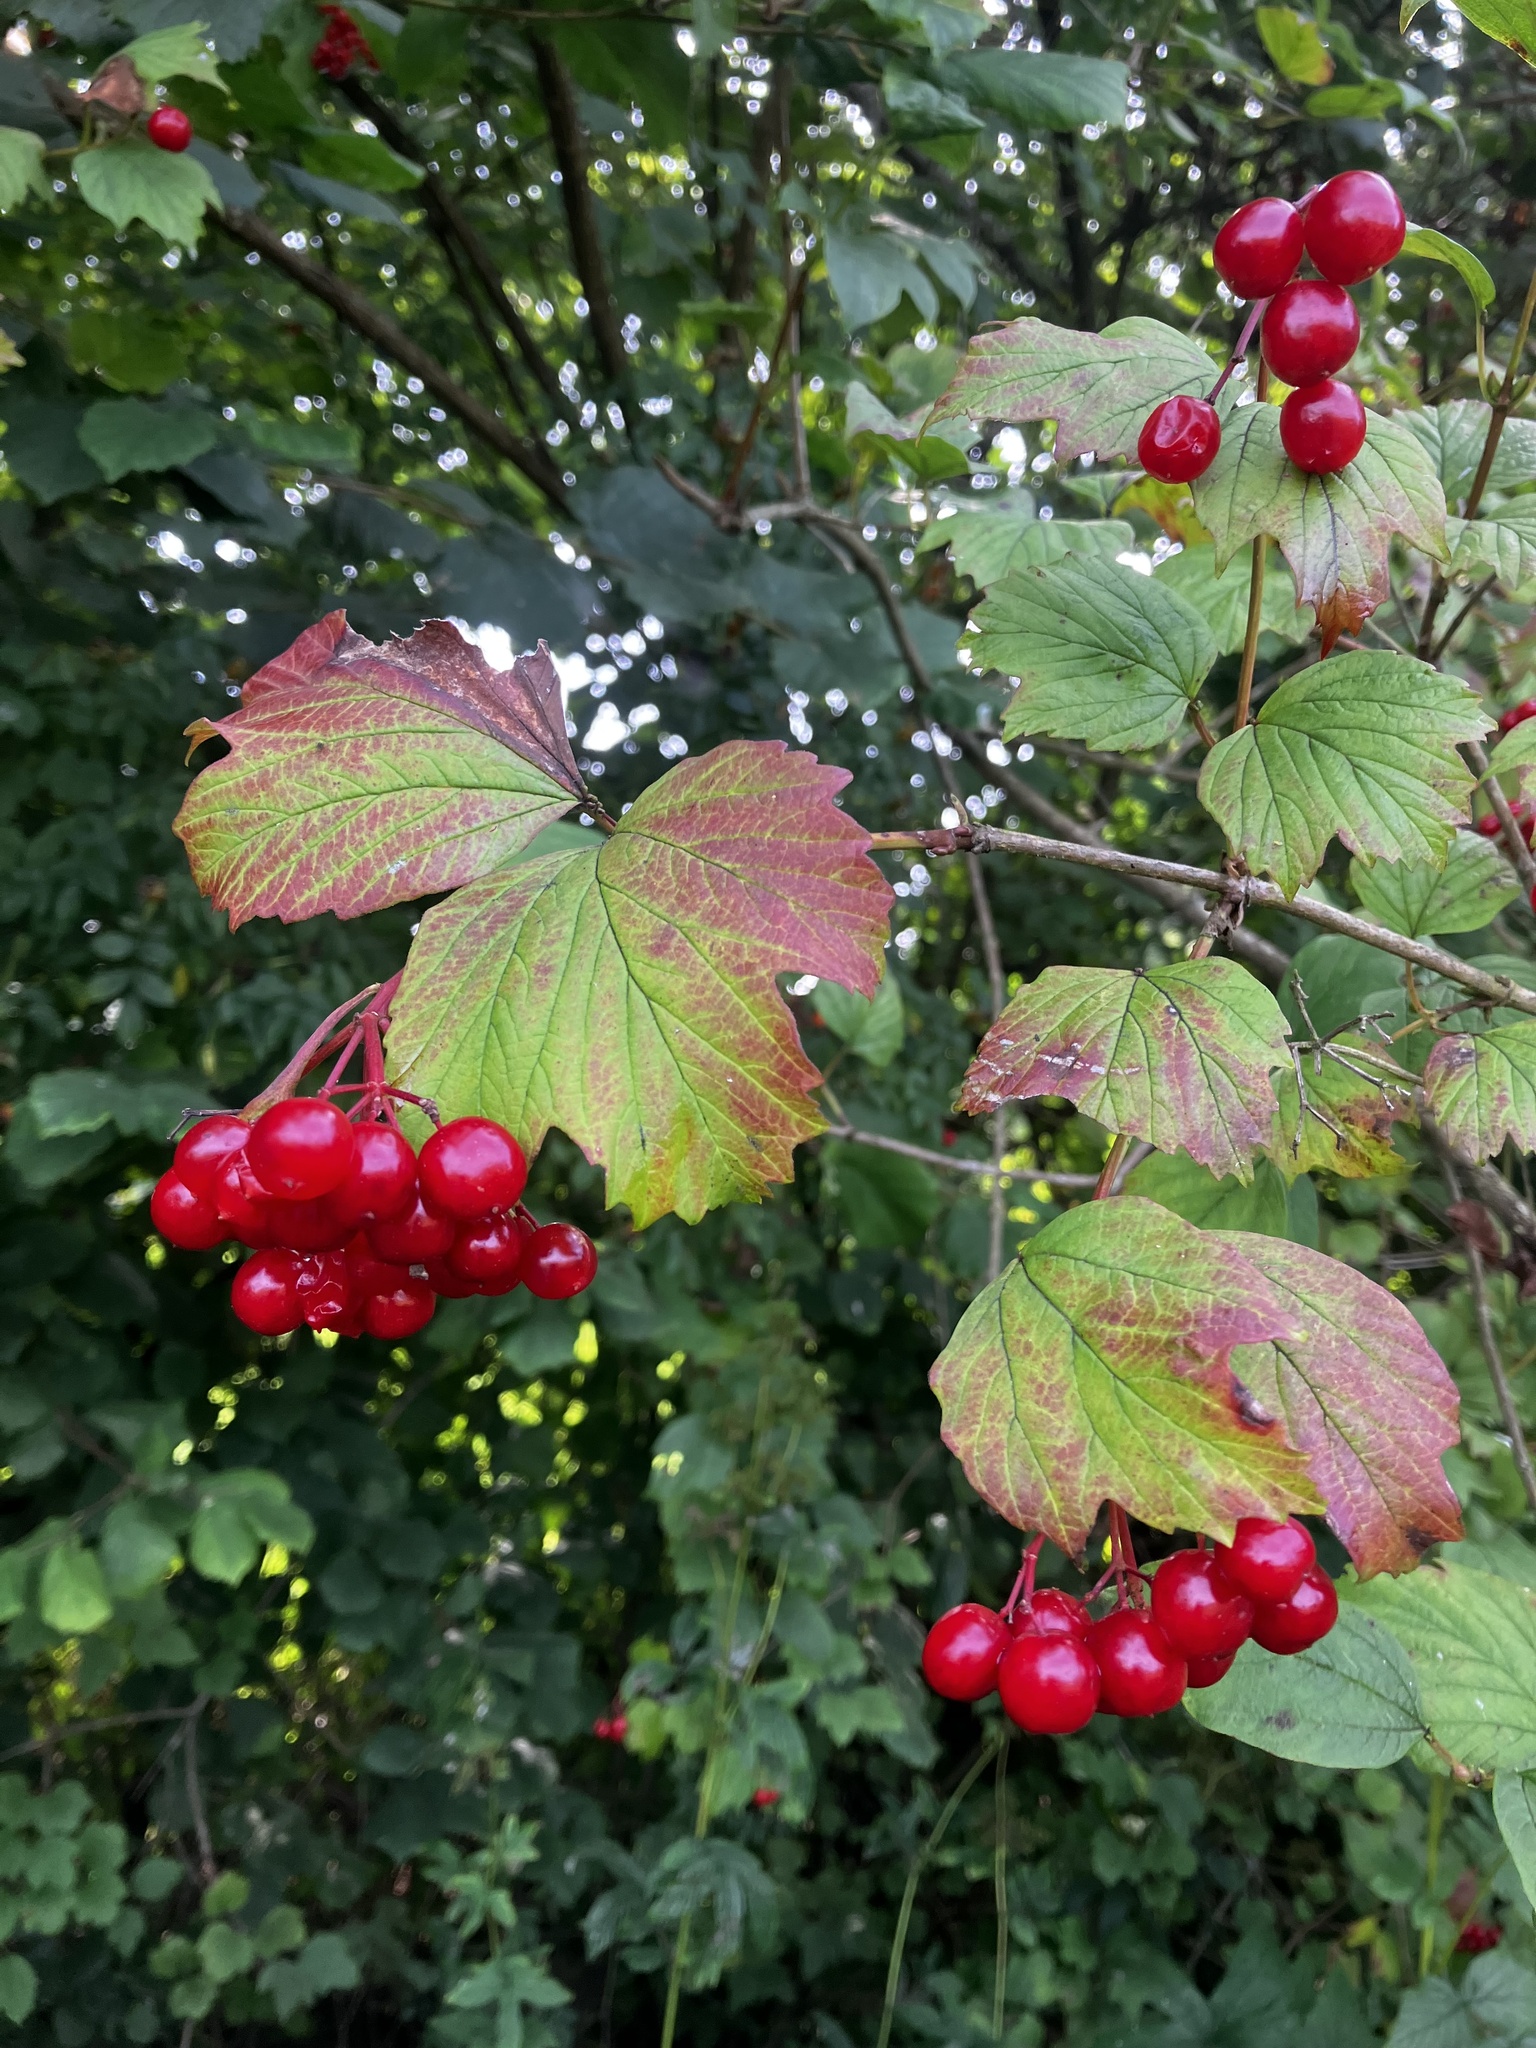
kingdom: Plantae
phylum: Tracheophyta
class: Magnoliopsida
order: Dipsacales
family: Viburnaceae
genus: Viburnum
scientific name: Viburnum opulus
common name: Guelder-rose
